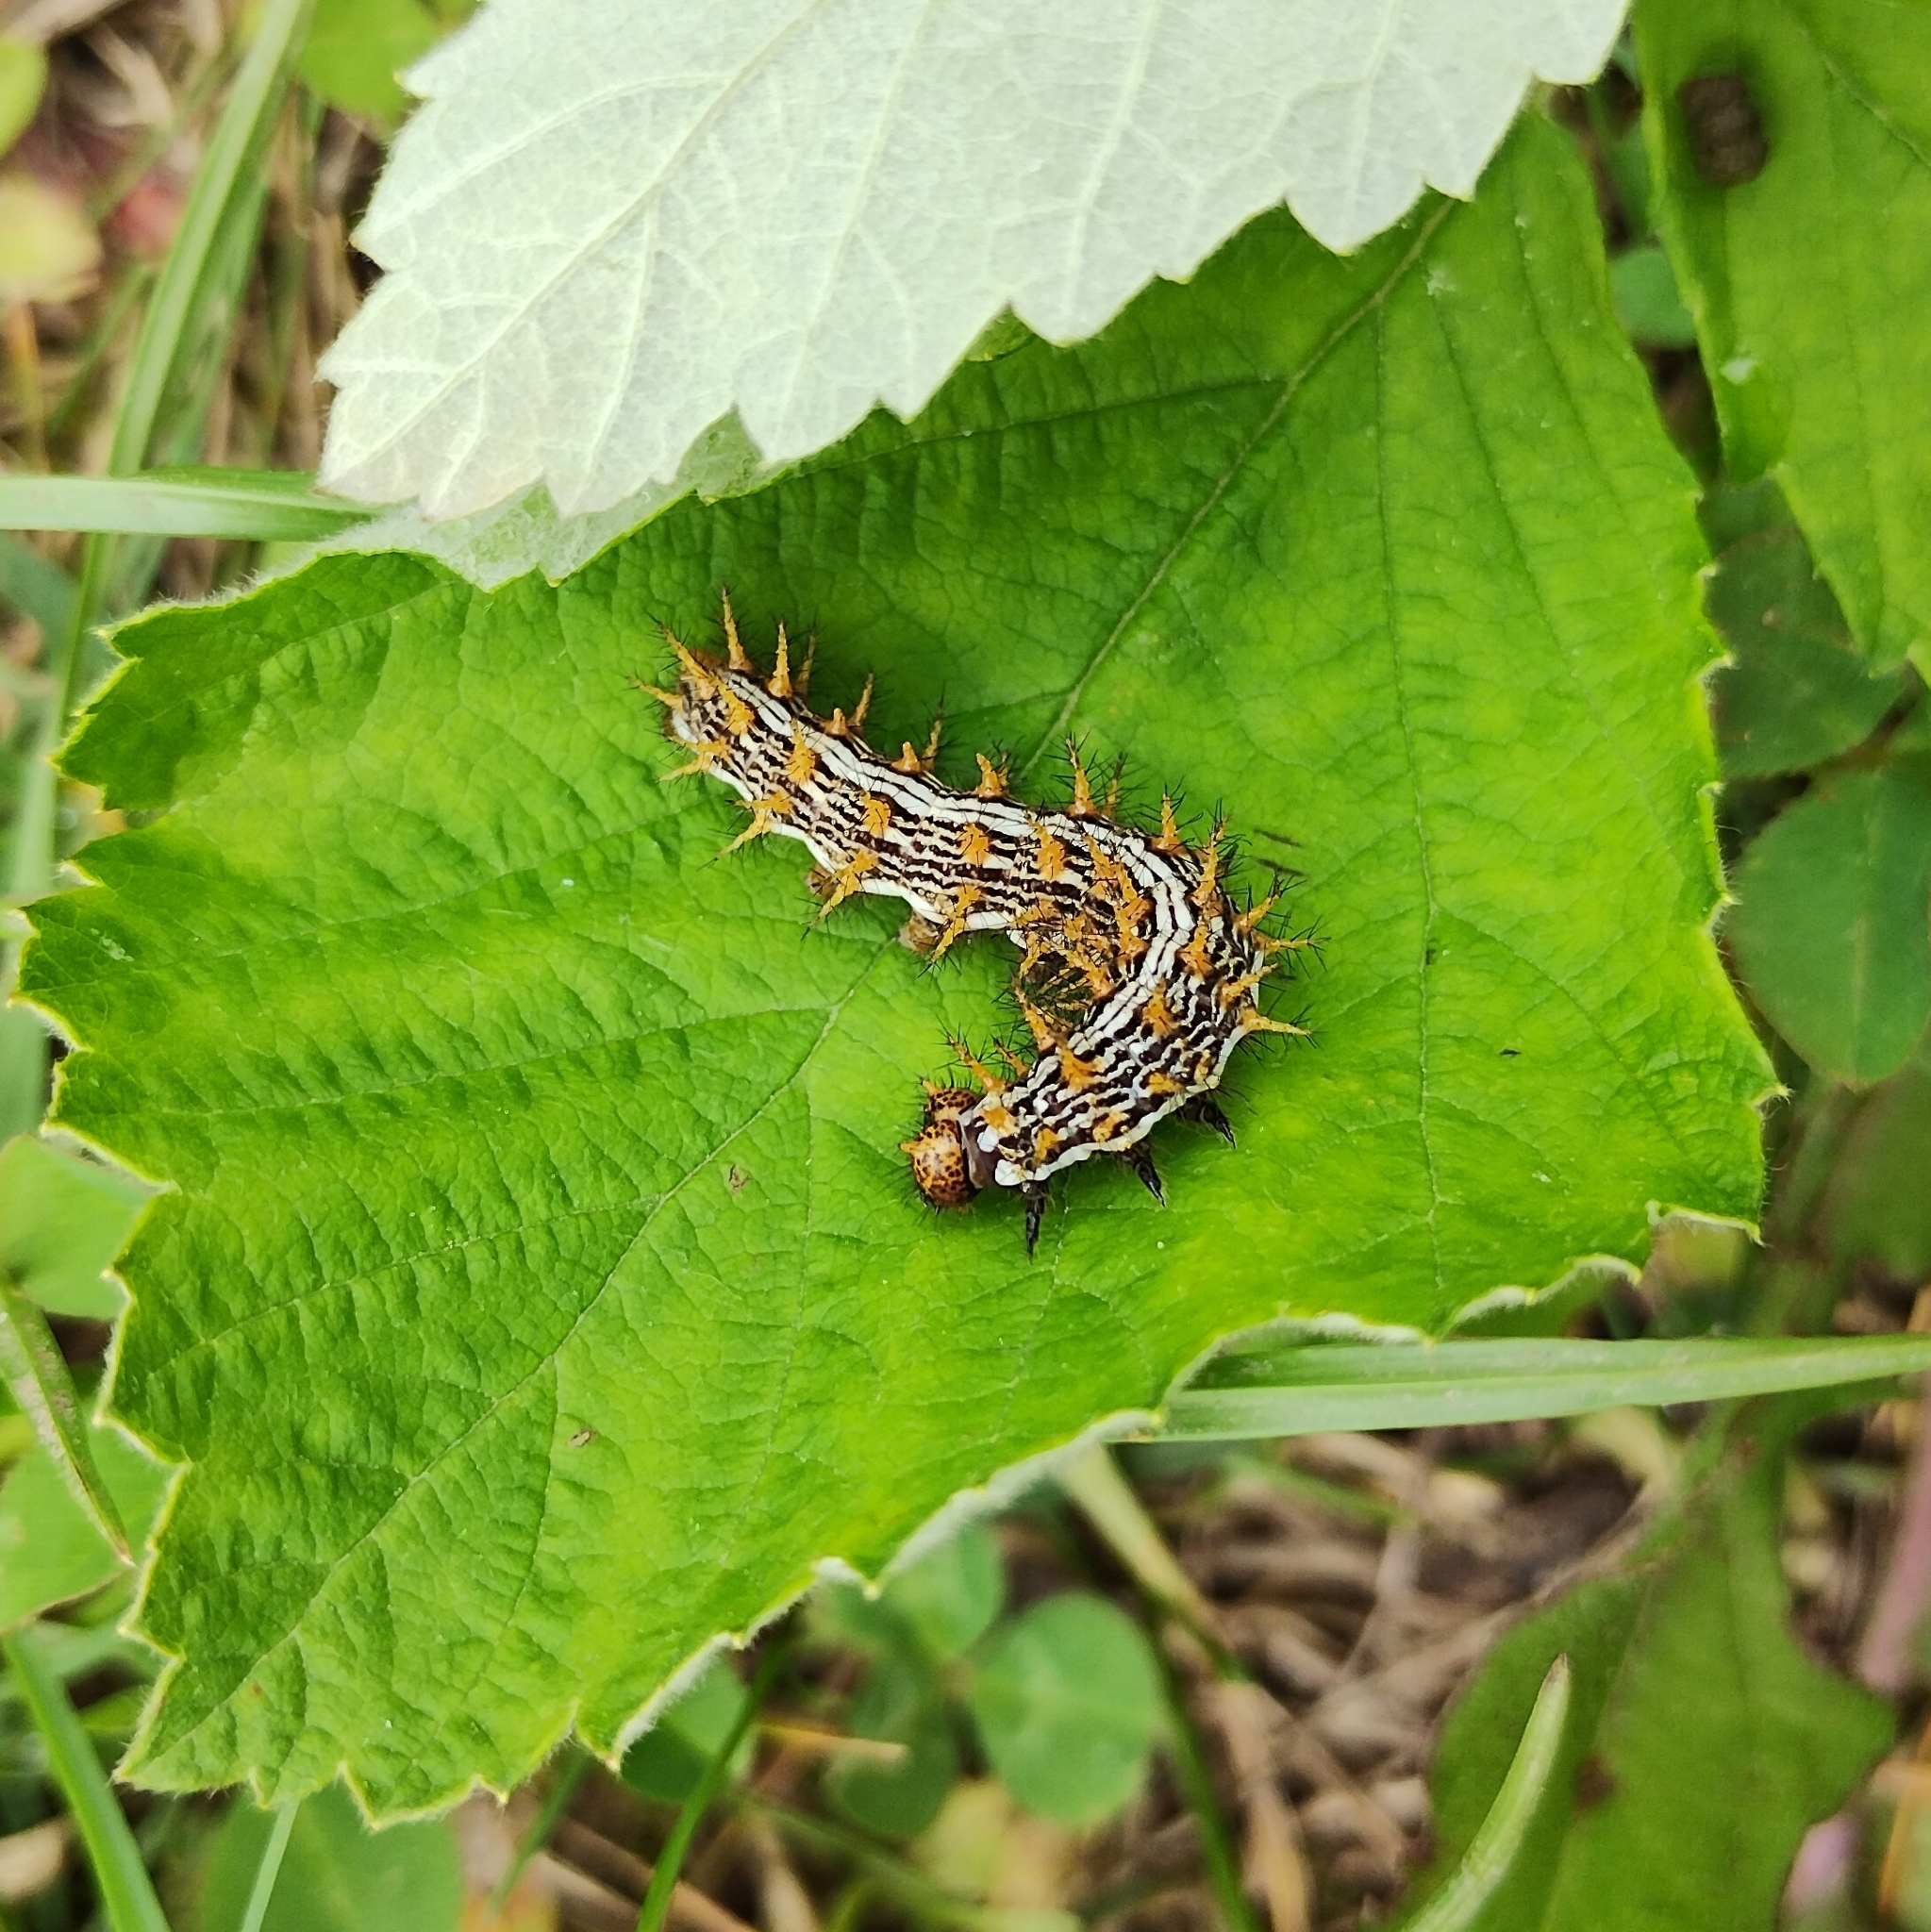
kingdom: Animalia
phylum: Arthropoda
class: Insecta
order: Lepidoptera
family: Nymphalidae
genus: Brenthis
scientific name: Brenthis daphne
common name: Marbled fritillary
